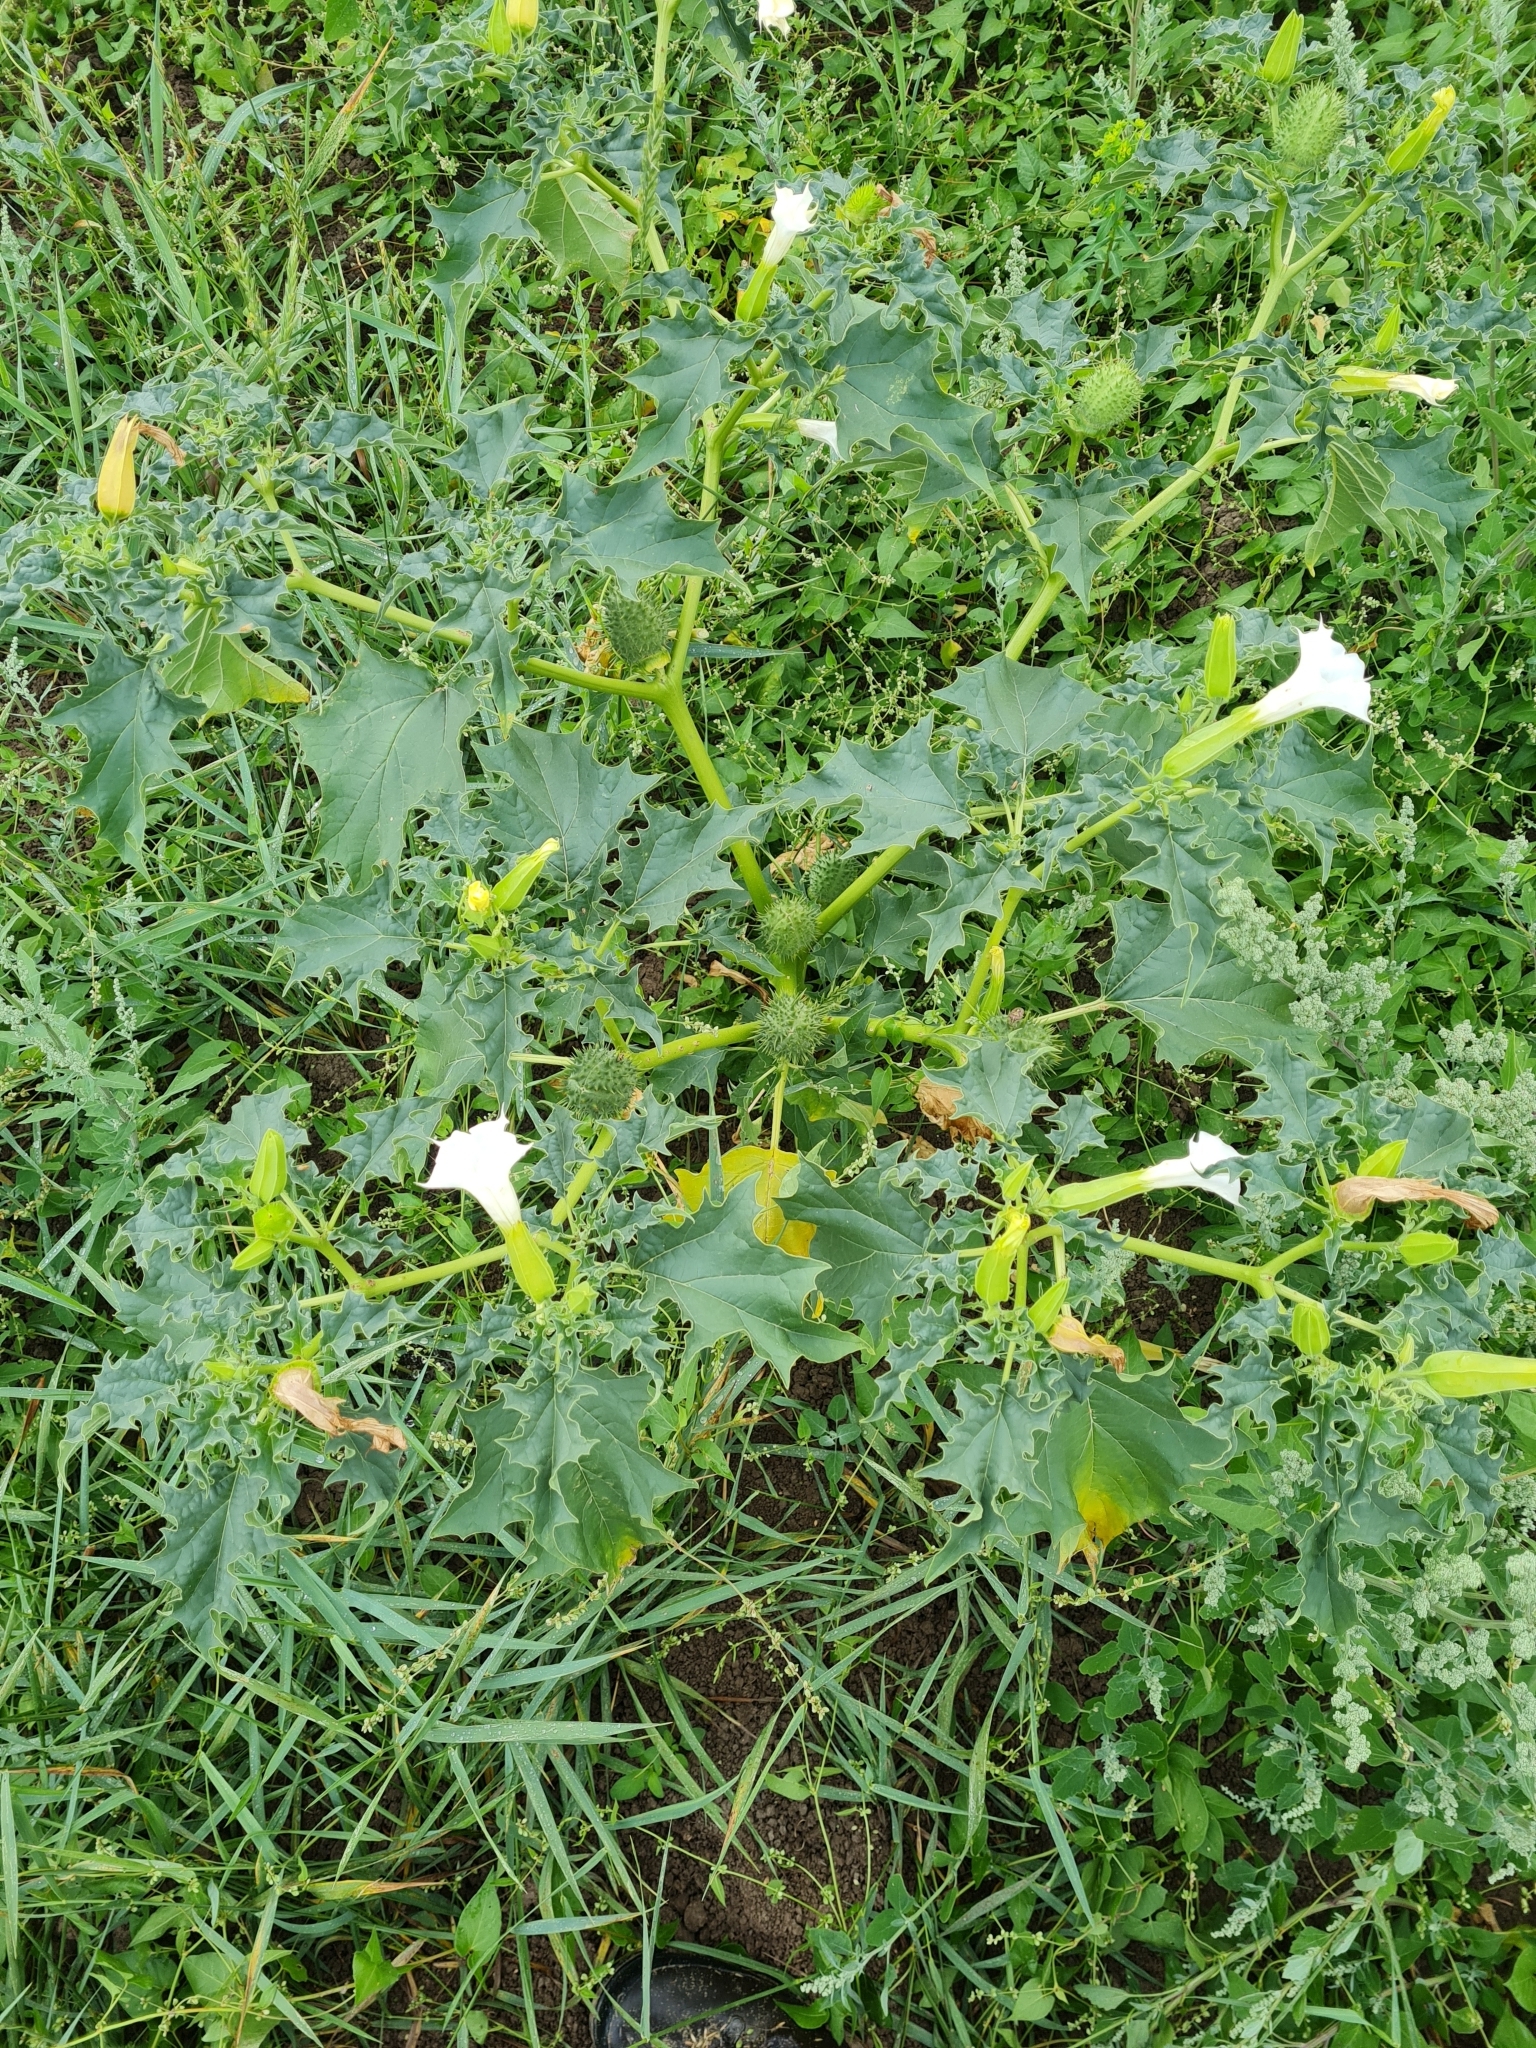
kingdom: Plantae
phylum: Tracheophyta
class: Magnoliopsida
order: Solanales
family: Solanaceae
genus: Datura
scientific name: Datura stramonium
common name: Thorn-apple
